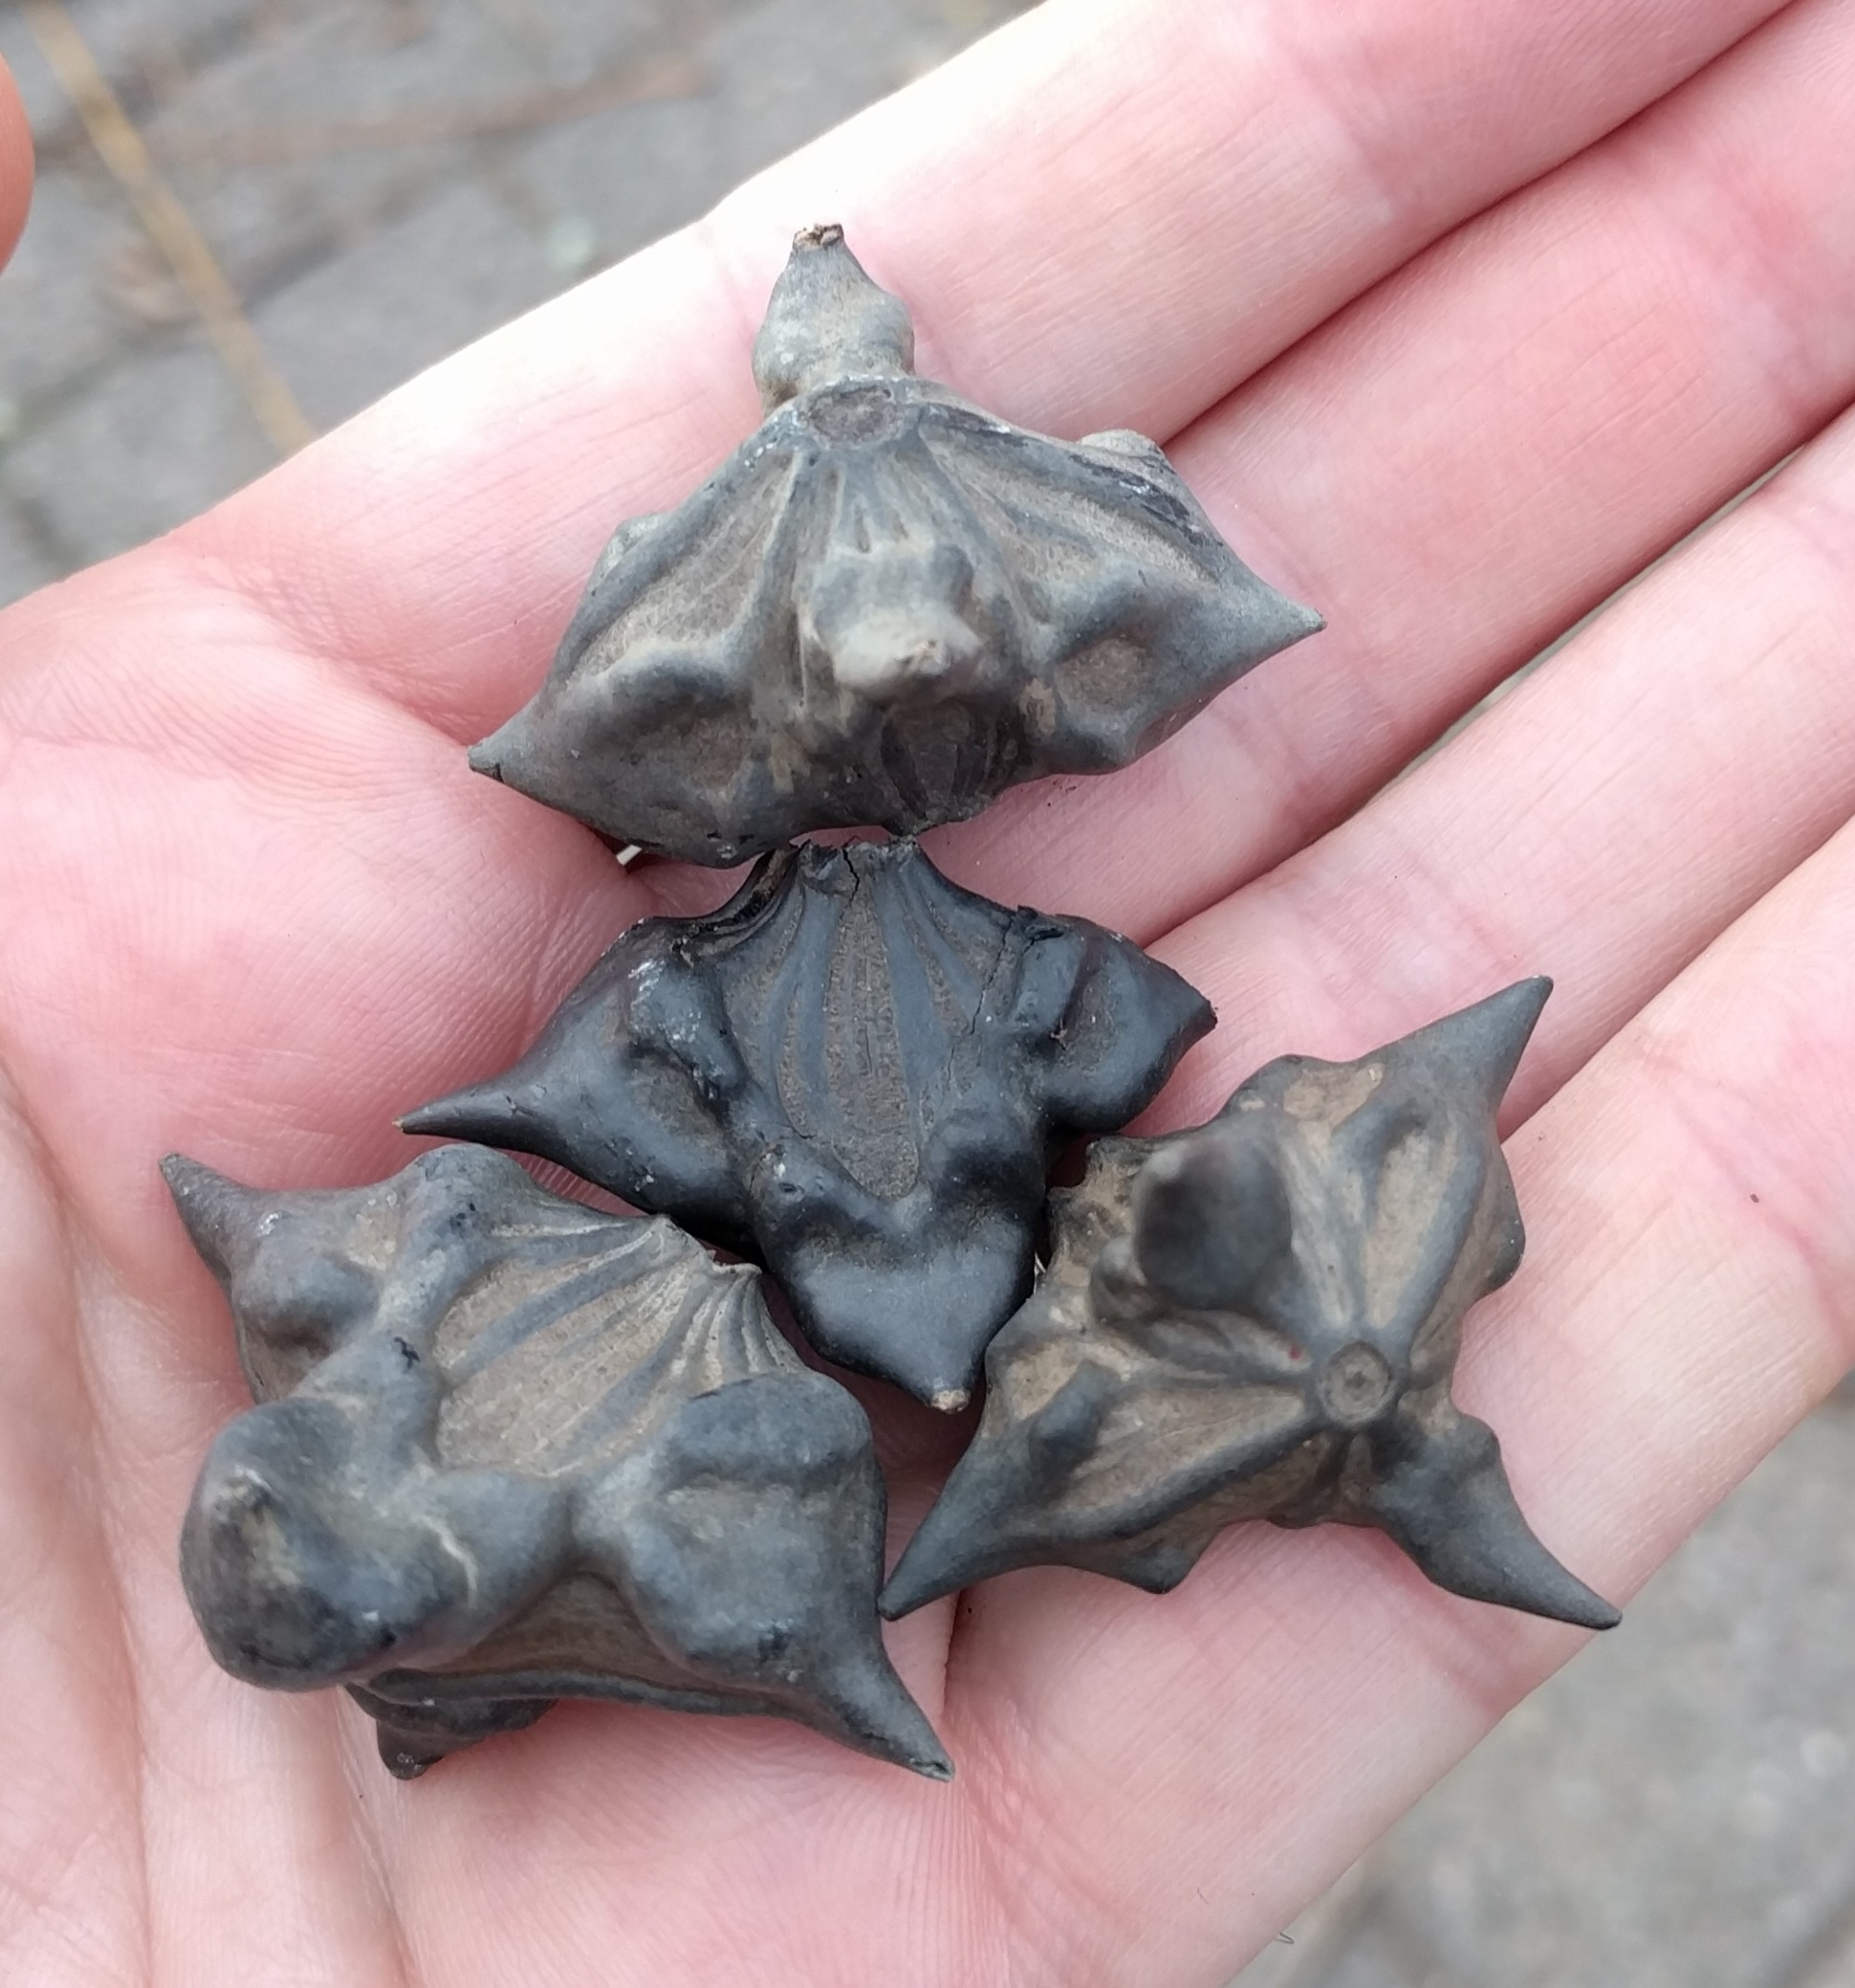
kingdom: Plantae
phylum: Tracheophyta
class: Magnoliopsida
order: Myrtales
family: Lythraceae
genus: Trapa
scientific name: Trapa natans
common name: Water chestnut
